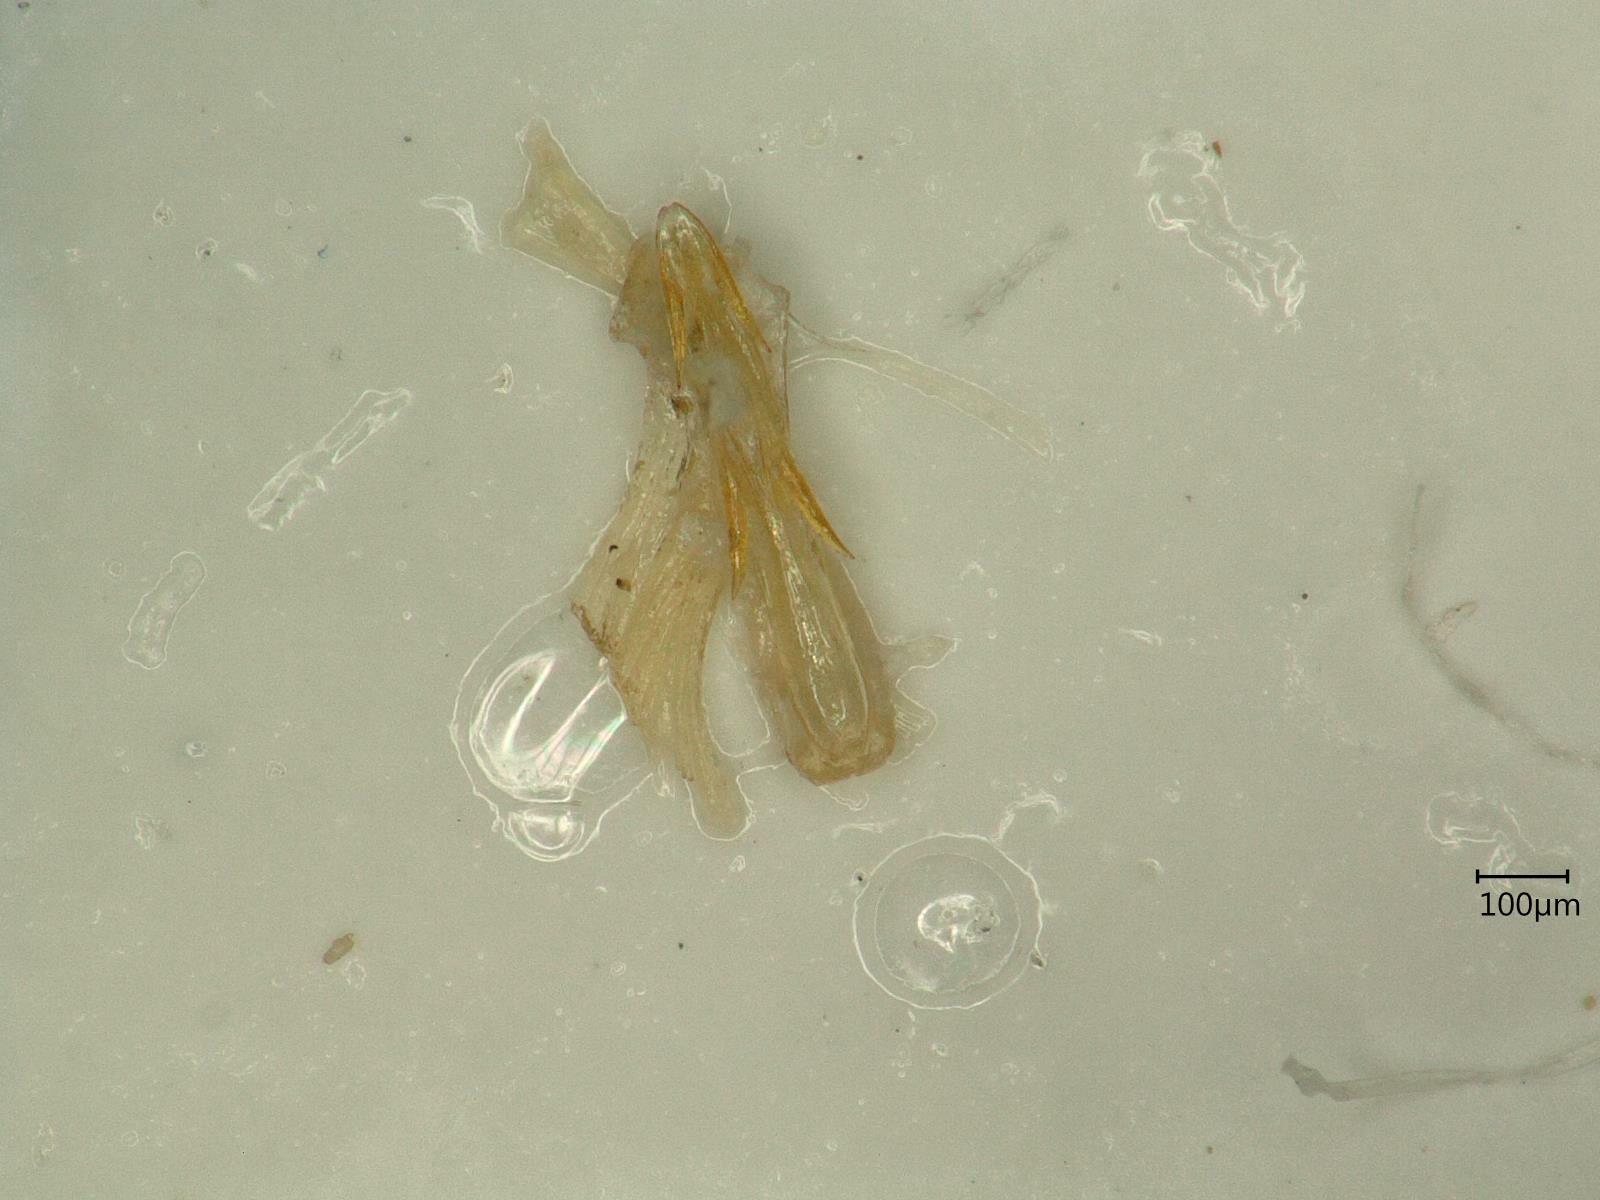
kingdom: Animalia
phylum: Arthropoda
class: Insecta
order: Hemiptera
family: Cicadellidae
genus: Anoscopus
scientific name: Anoscopus albifrons
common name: Leafhopper
